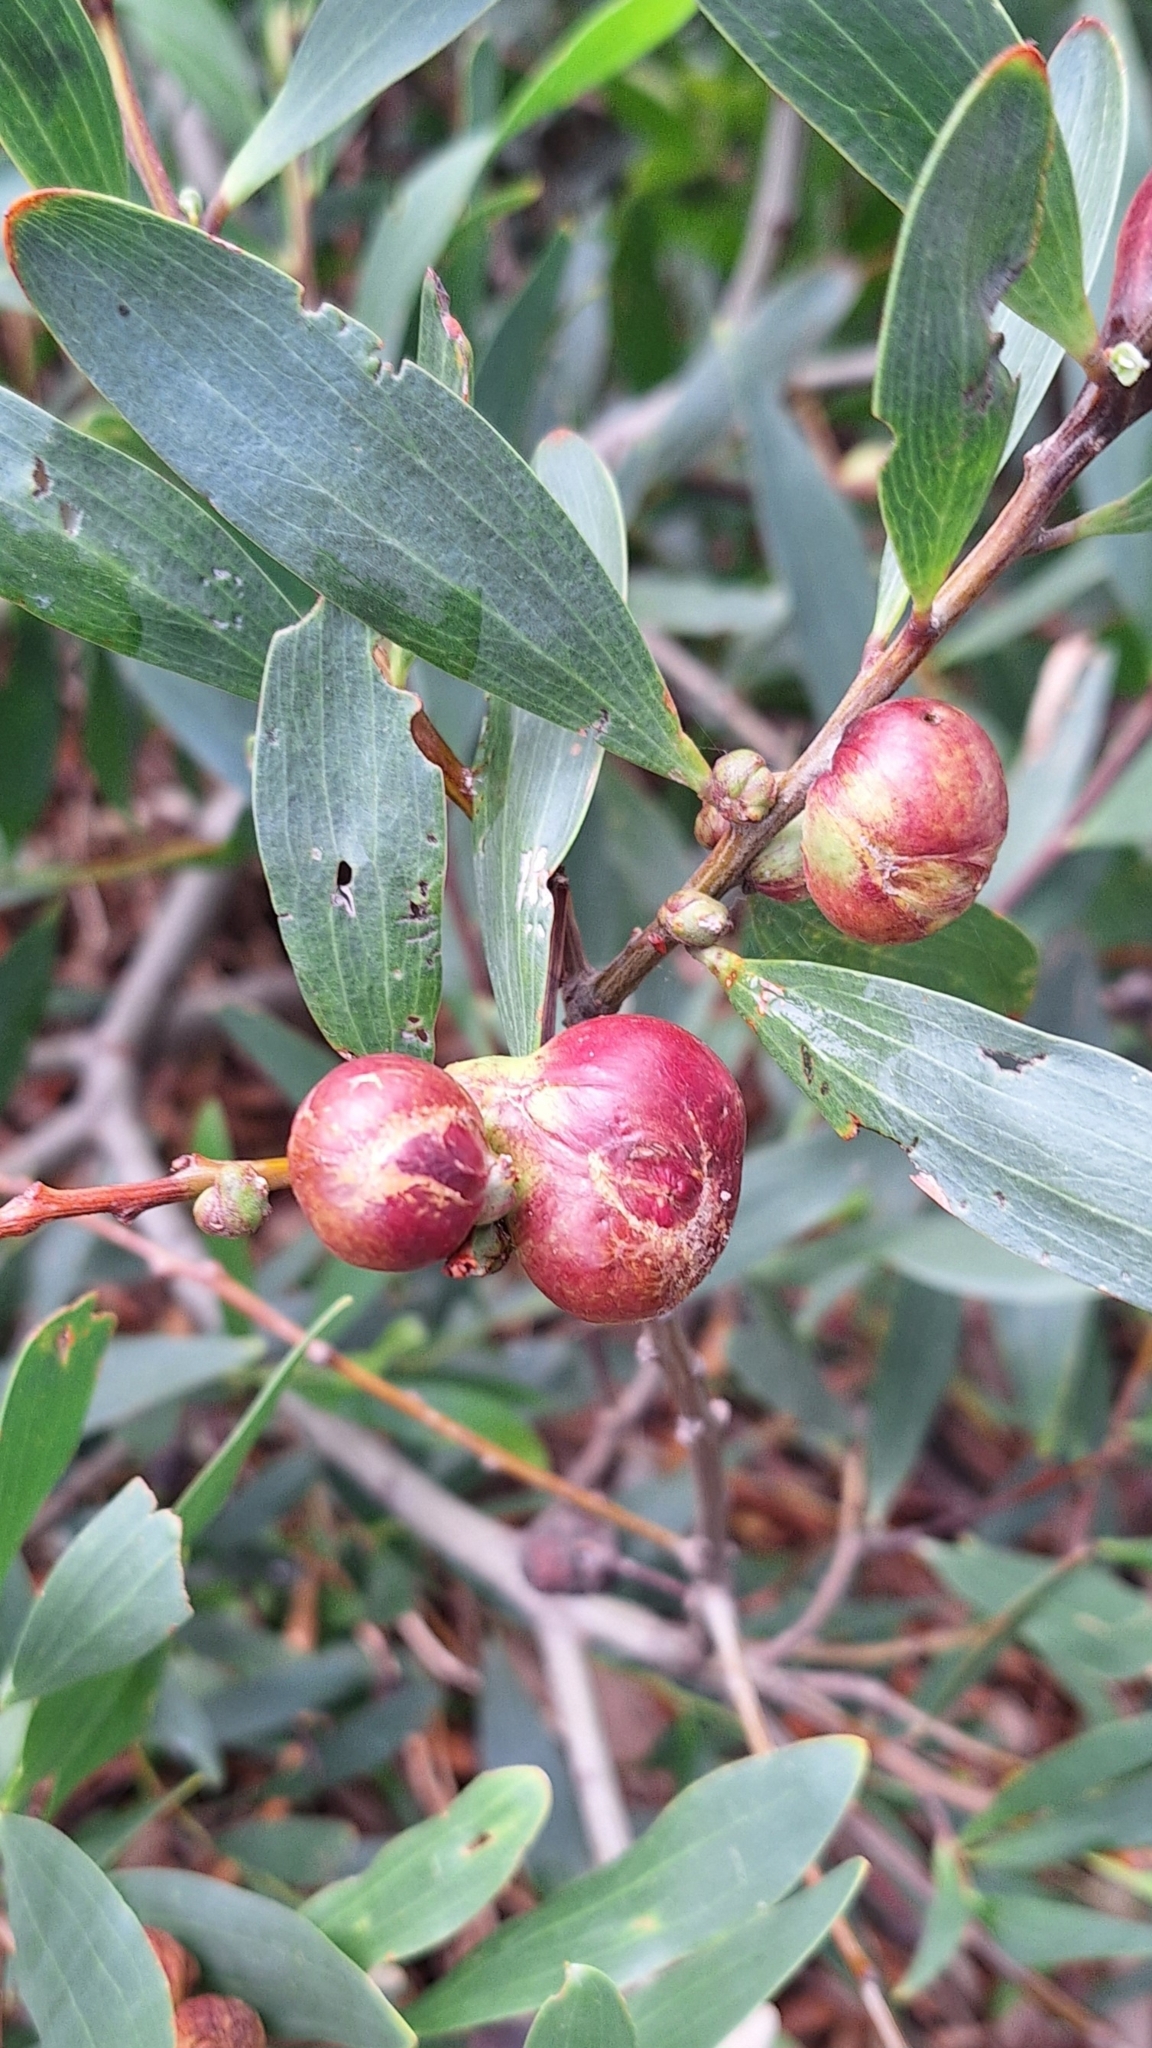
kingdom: Animalia
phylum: Arthropoda
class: Insecta
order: Hymenoptera
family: Pteromalidae
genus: Trichilogaster
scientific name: Trichilogaster acaciaelongifoliae
